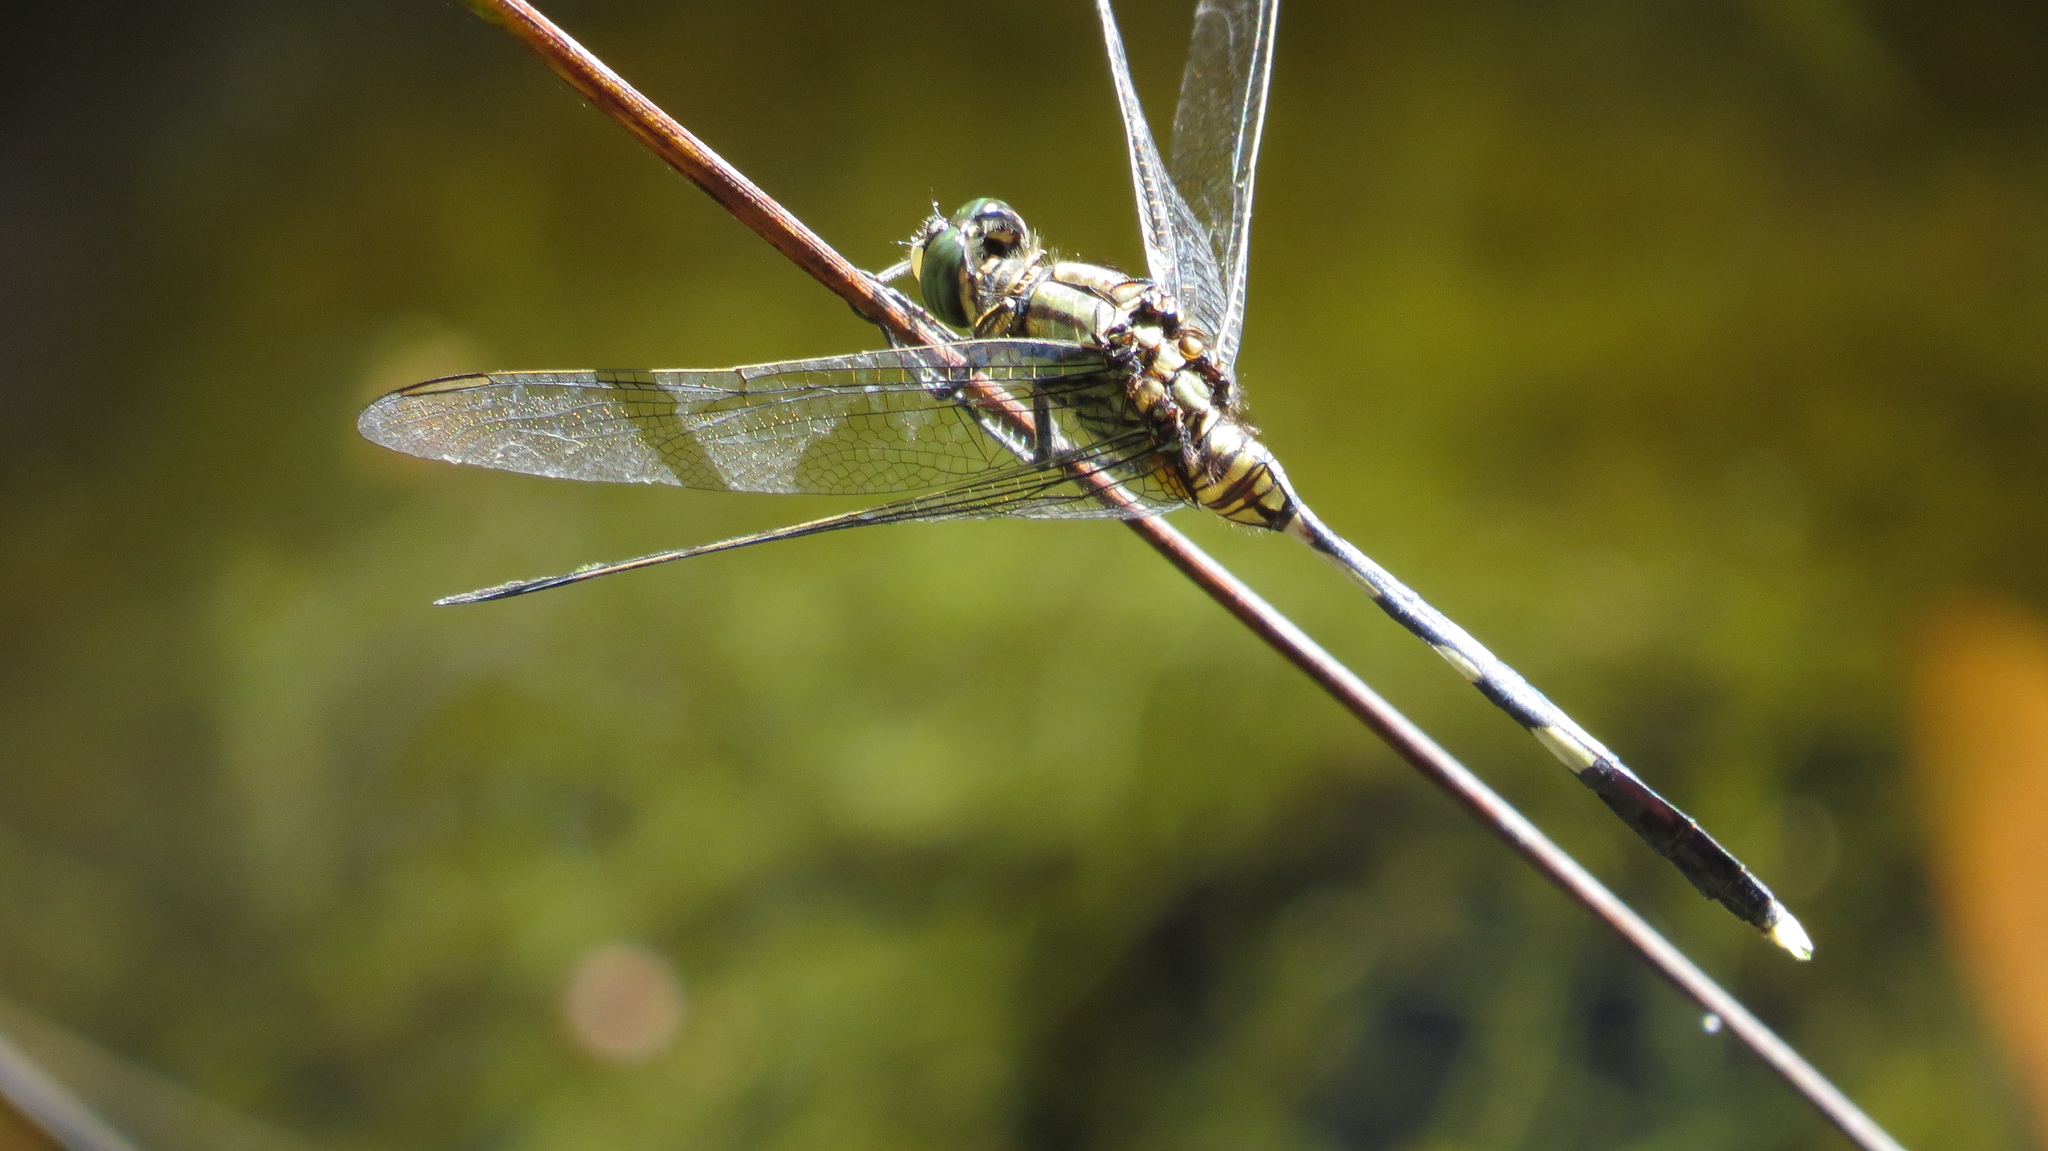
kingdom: Animalia
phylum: Arthropoda
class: Insecta
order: Odonata
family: Libellulidae
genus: Orthetrum
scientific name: Orthetrum sabina
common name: Slender skimmer
